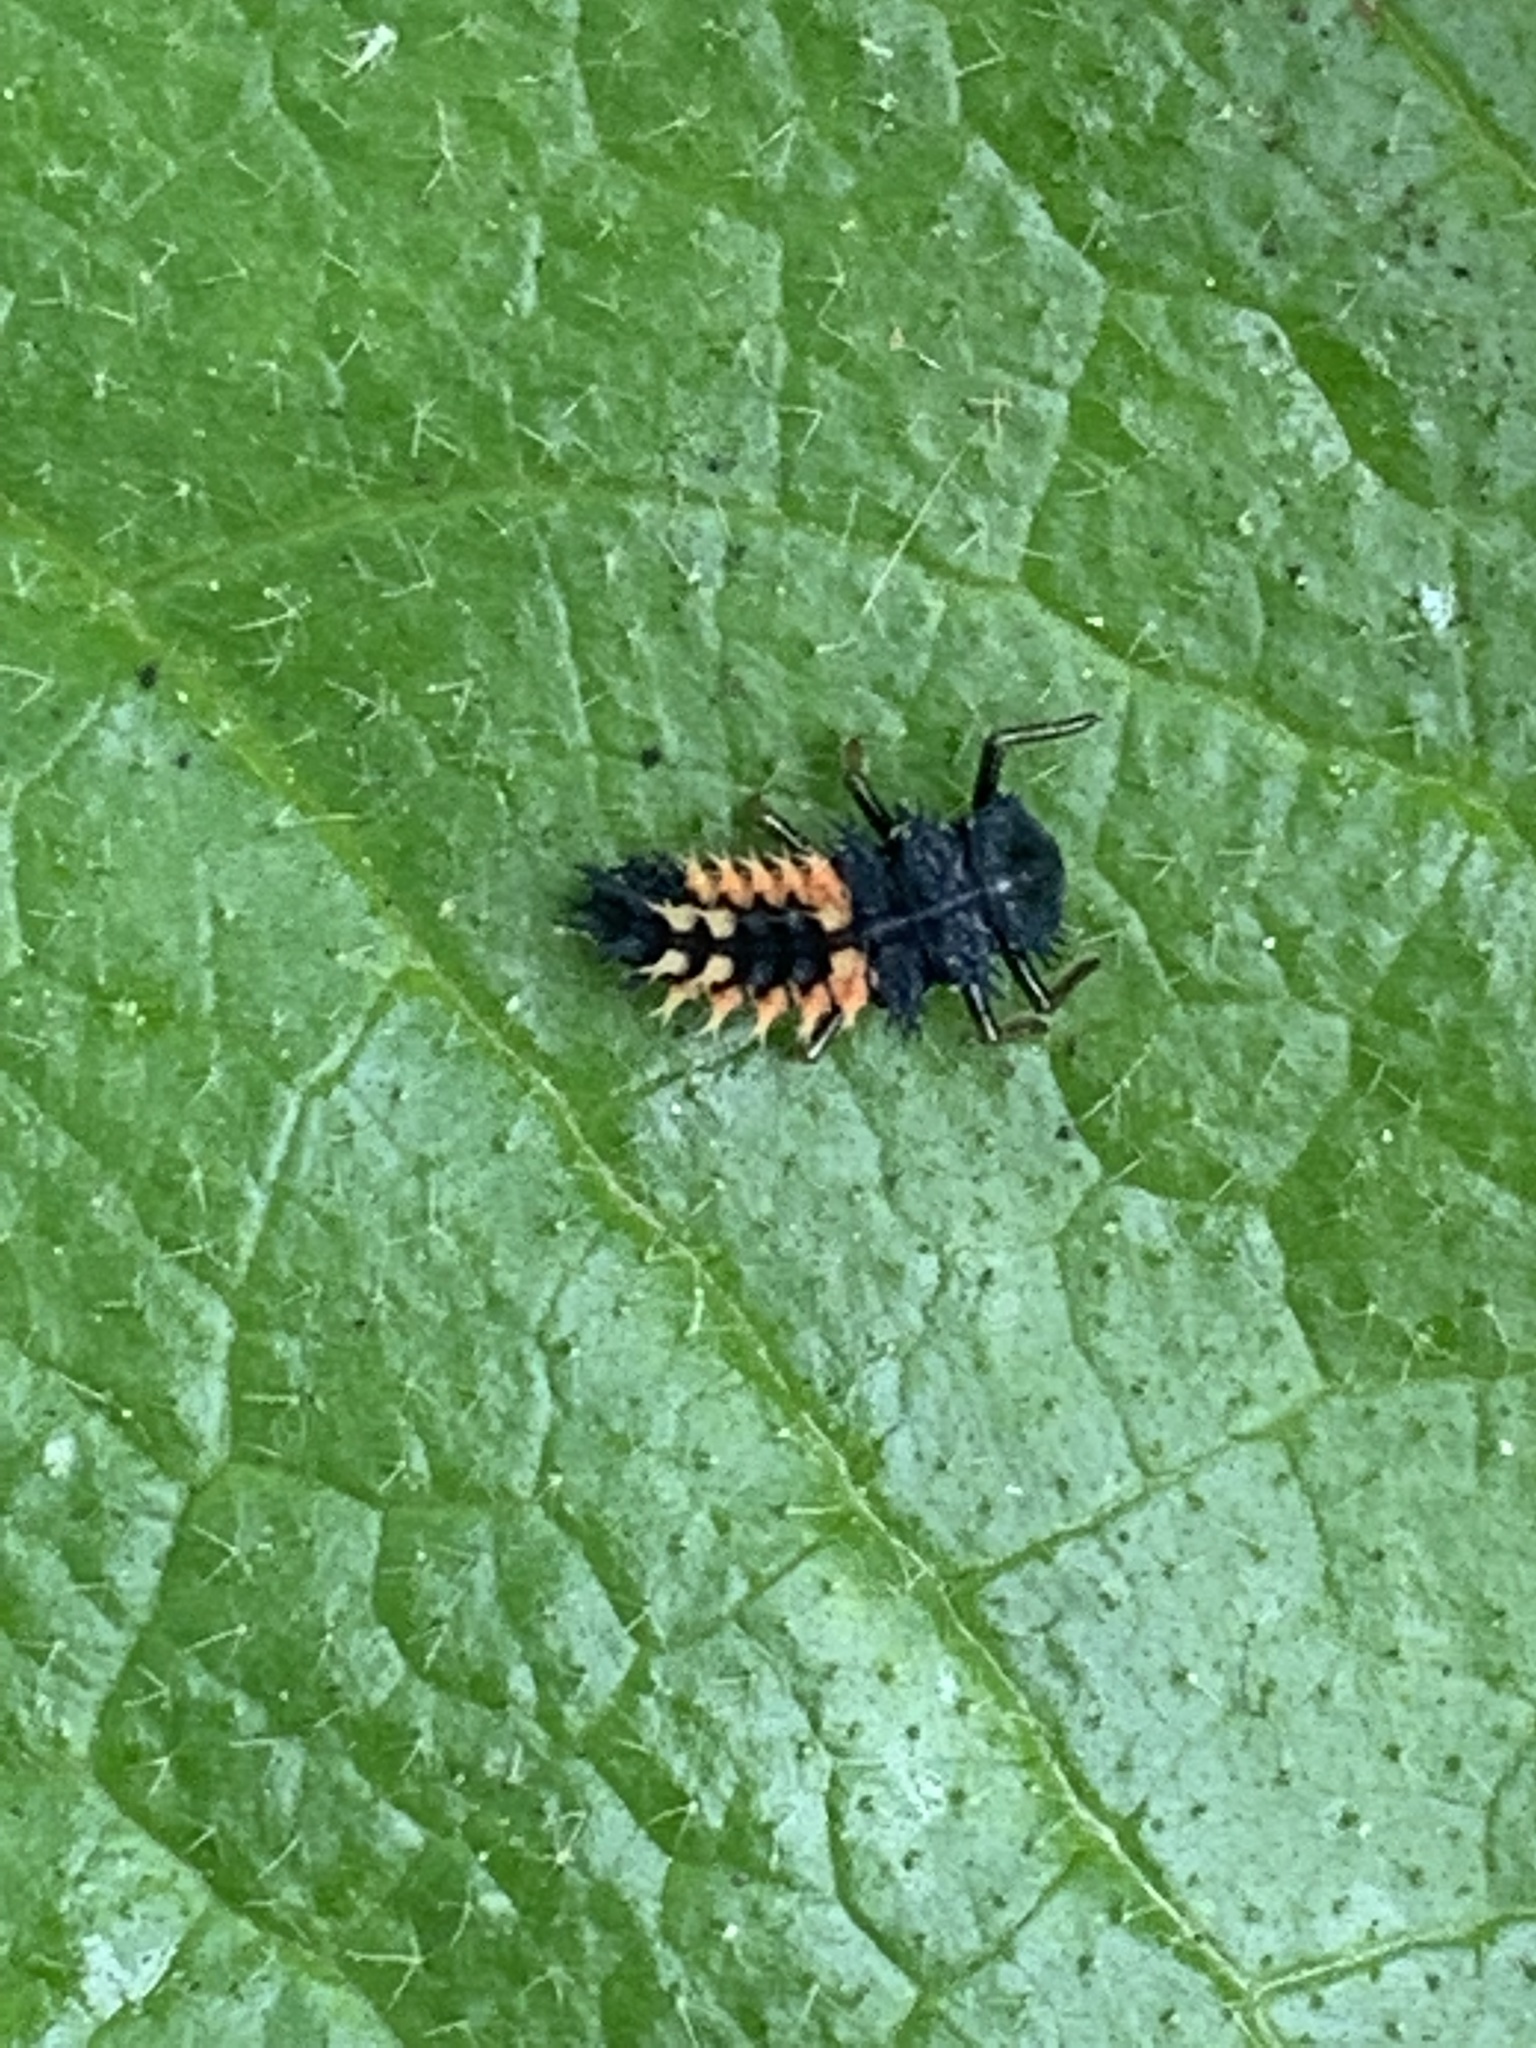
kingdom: Animalia
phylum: Arthropoda
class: Insecta
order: Coleoptera
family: Coccinellidae
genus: Harmonia
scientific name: Harmonia axyridis
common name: Harlequin ladybird
